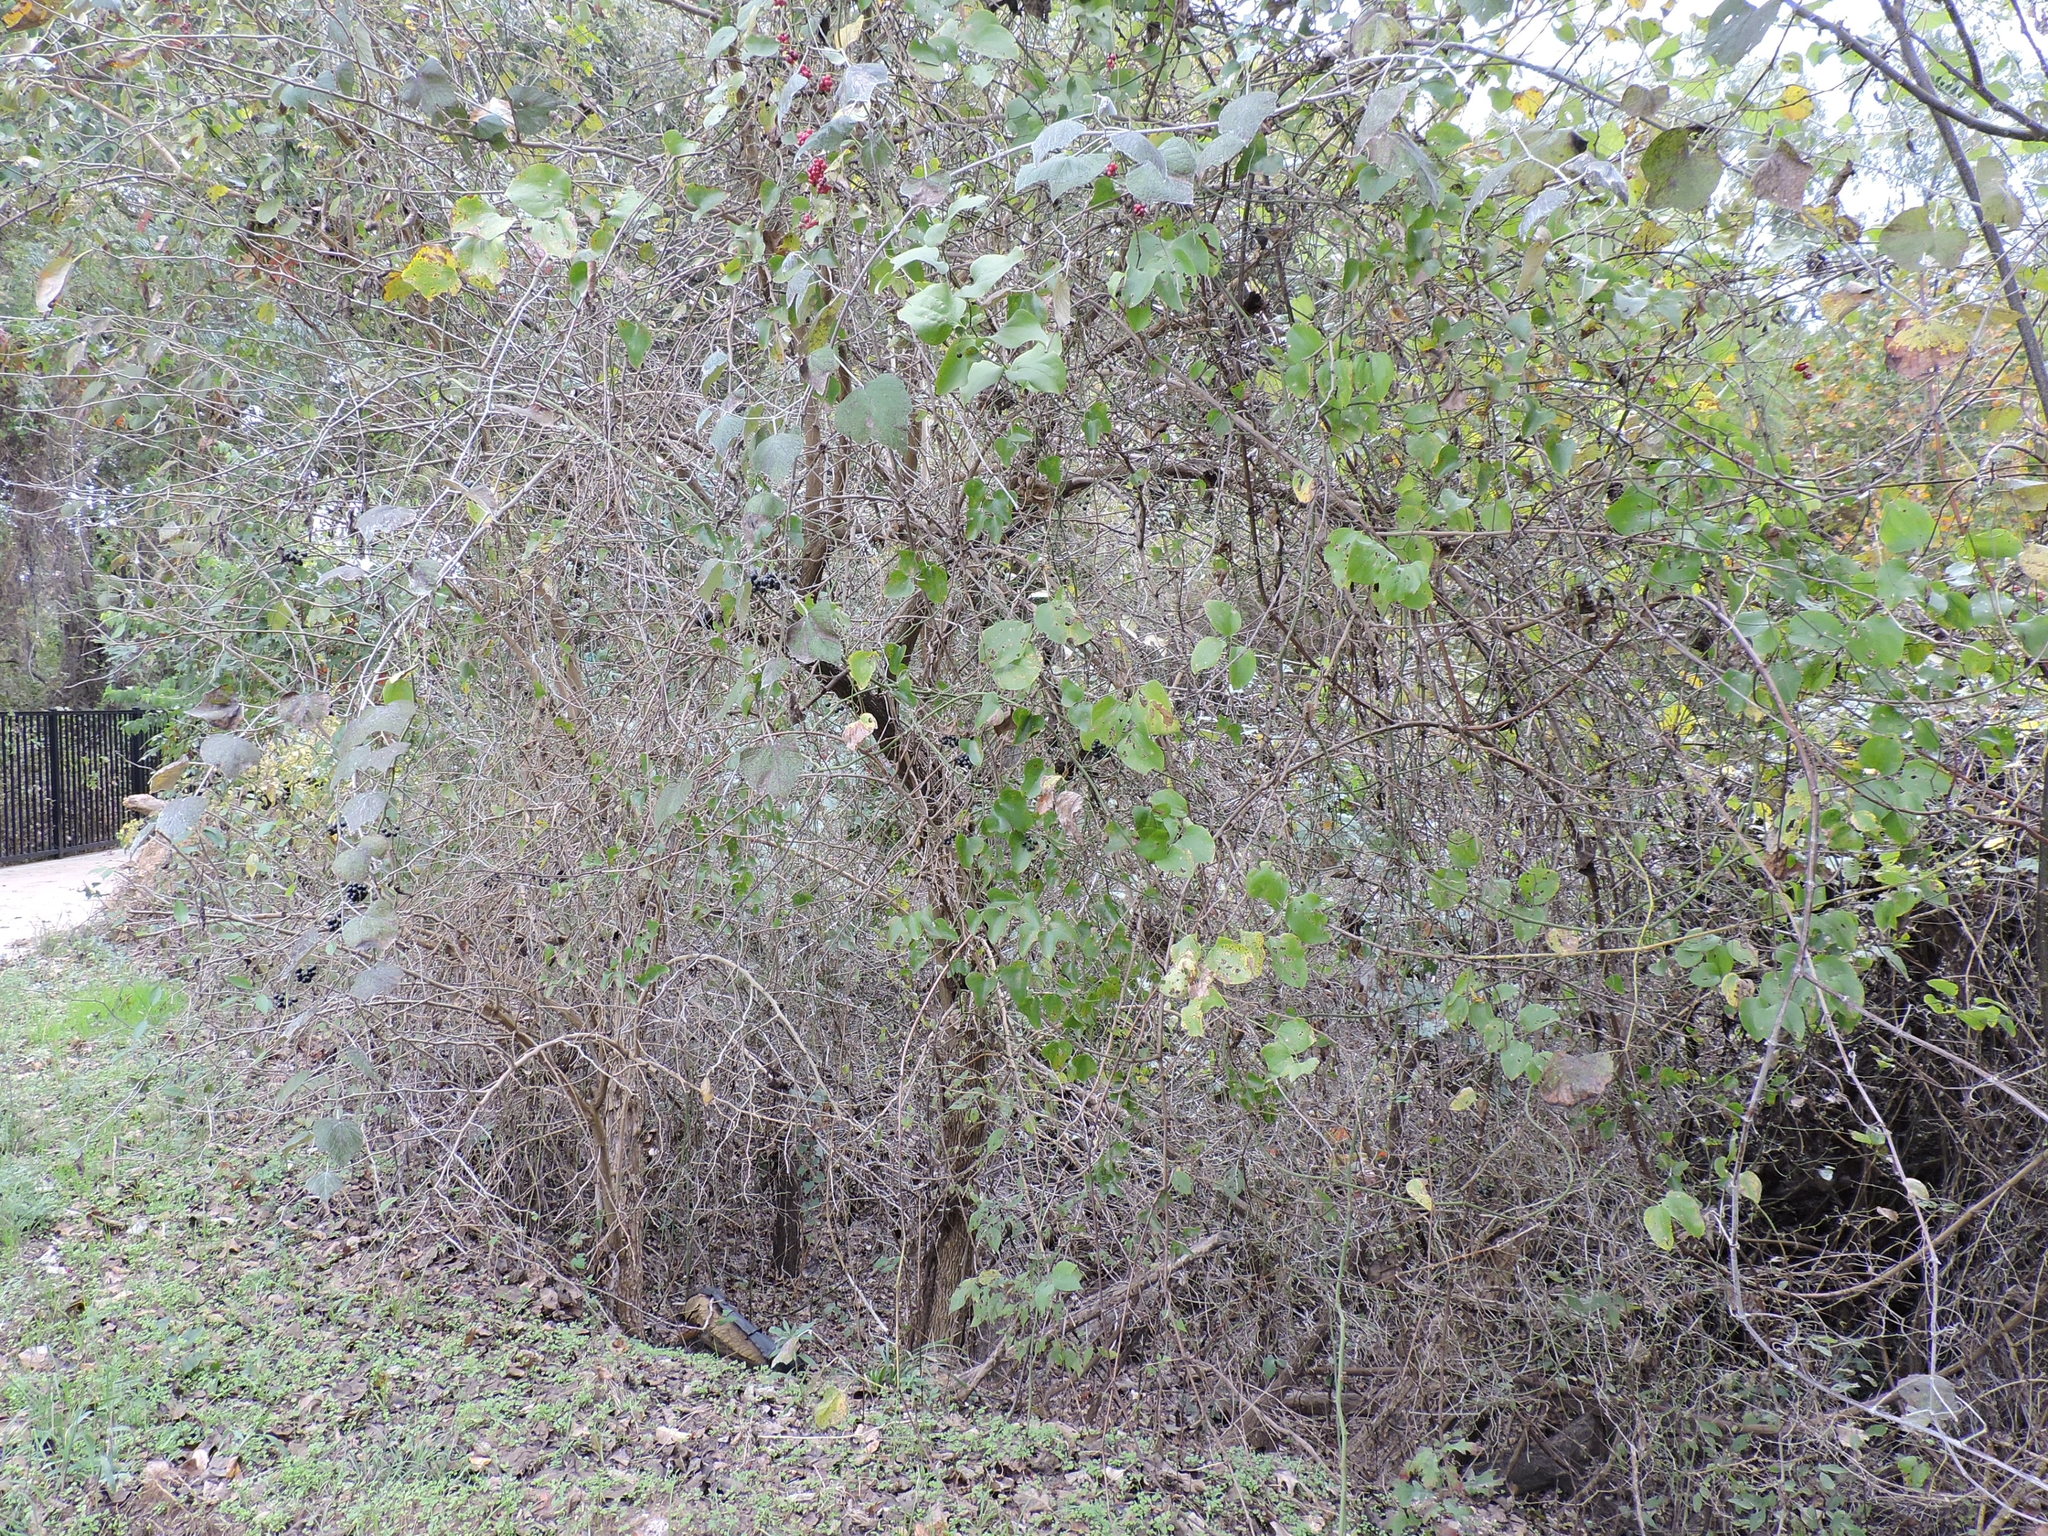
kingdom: Plantae
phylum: Tracheophyta
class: Liliopsida
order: Liliales
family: Smilacaceae
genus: Smilax
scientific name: Smilax bona-nox
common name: Catbrier
